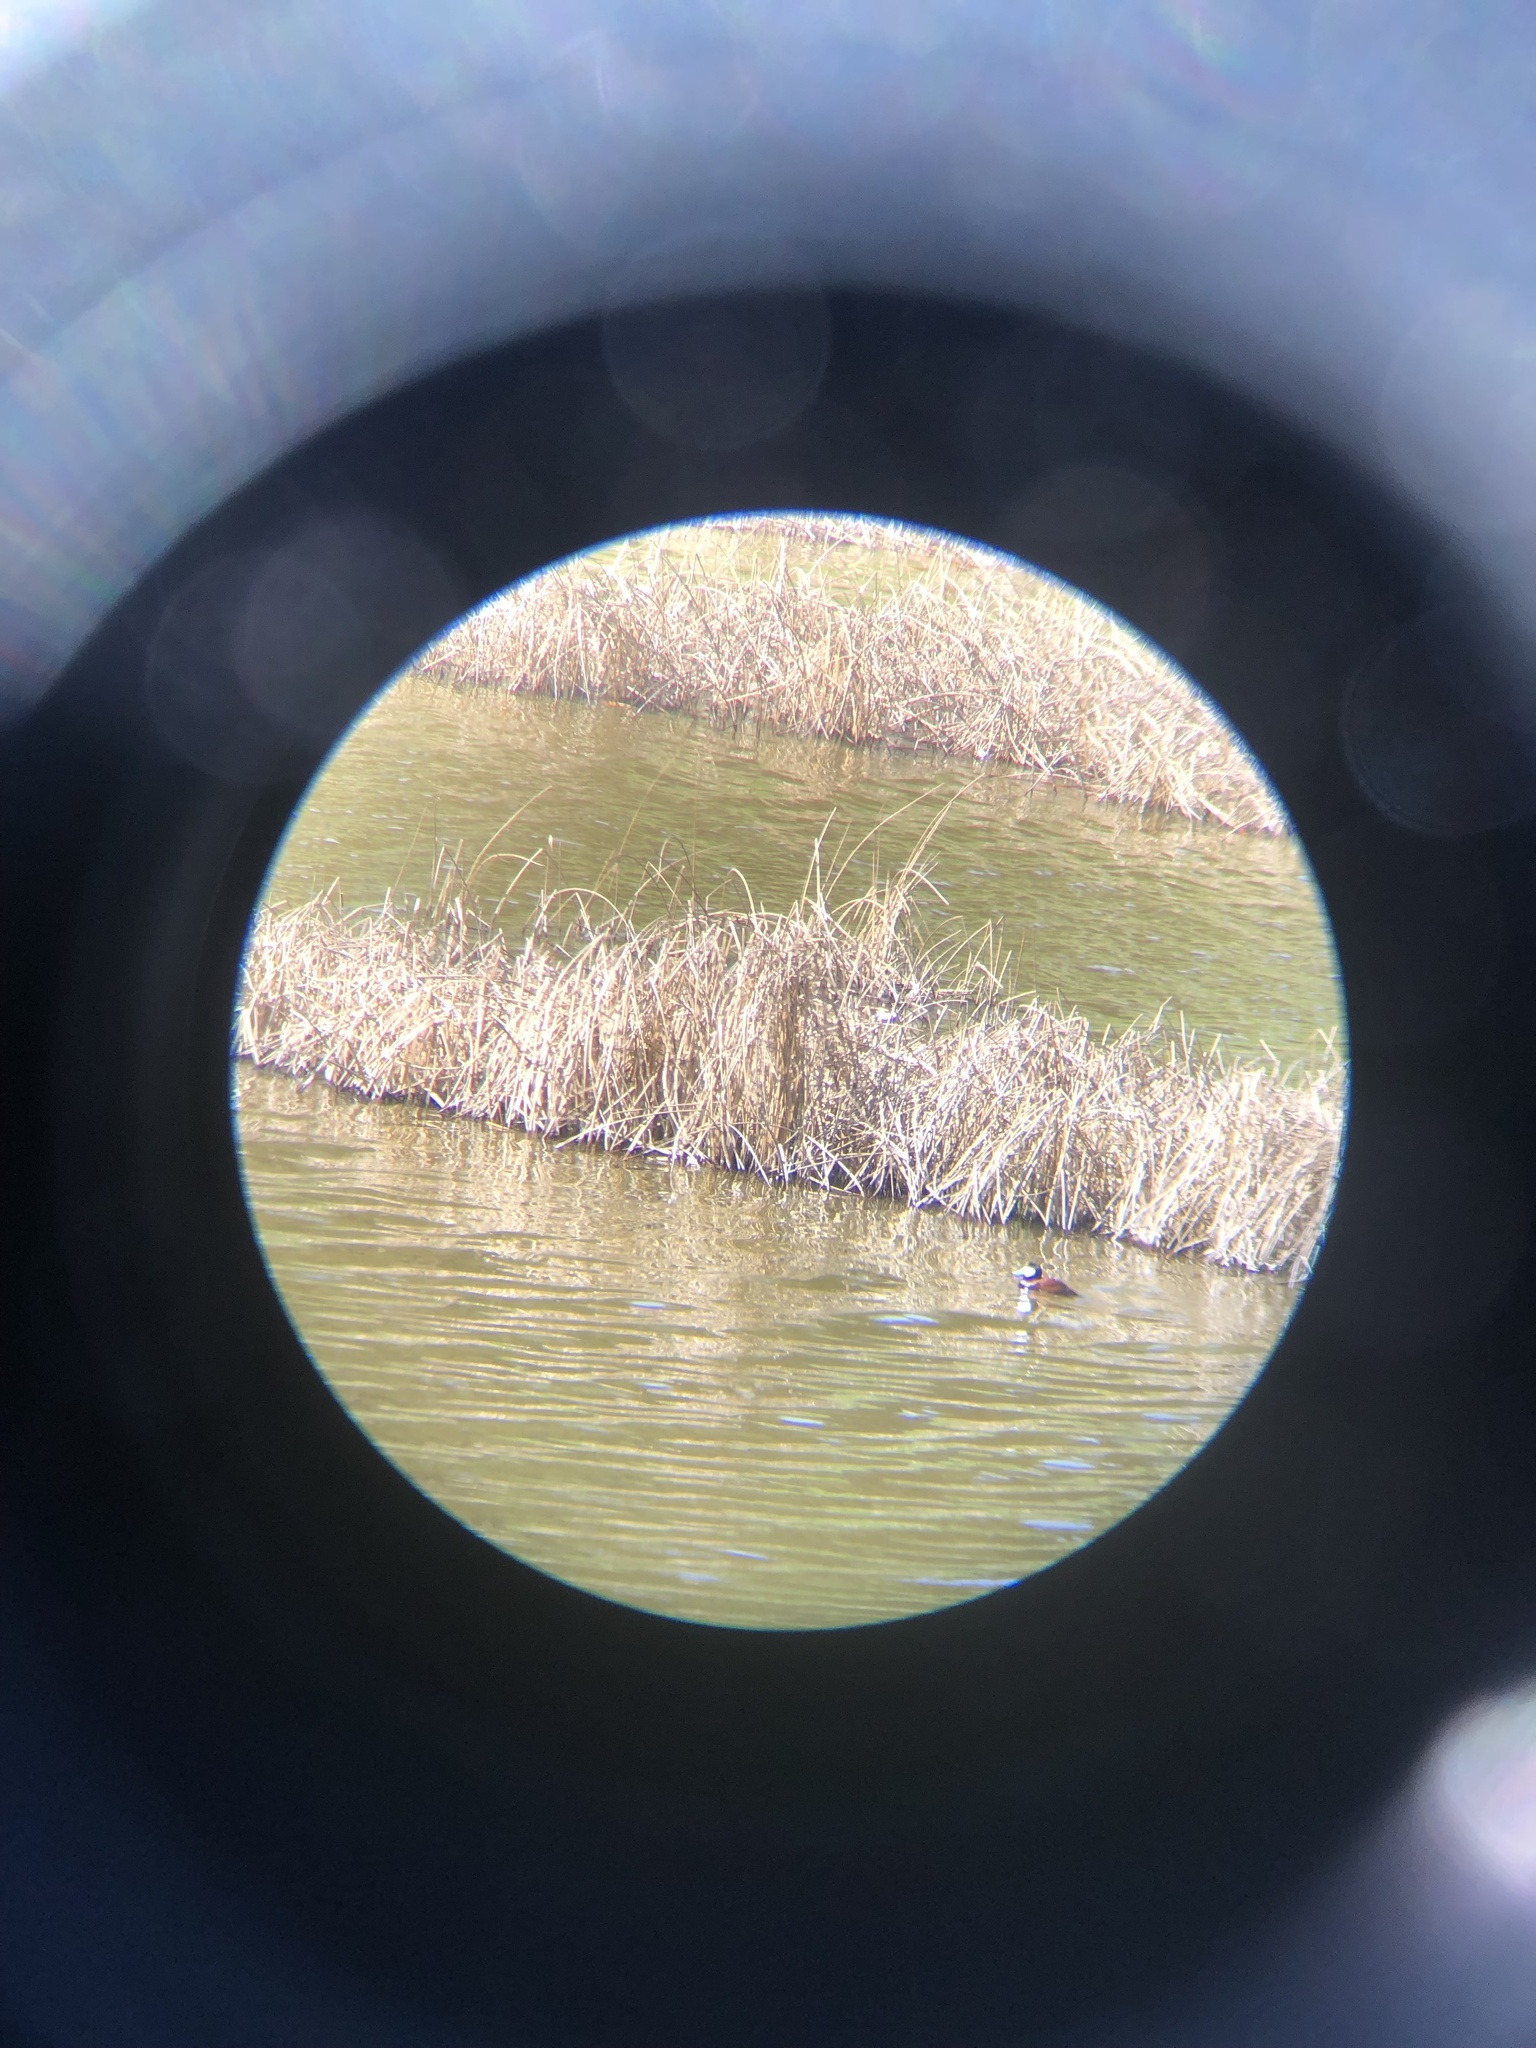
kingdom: Animalia
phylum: Chordata
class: Aves
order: Anseriformes
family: Anatidae
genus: Oxyura
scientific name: Oxyura jamaicensis
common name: Ruddy duck
